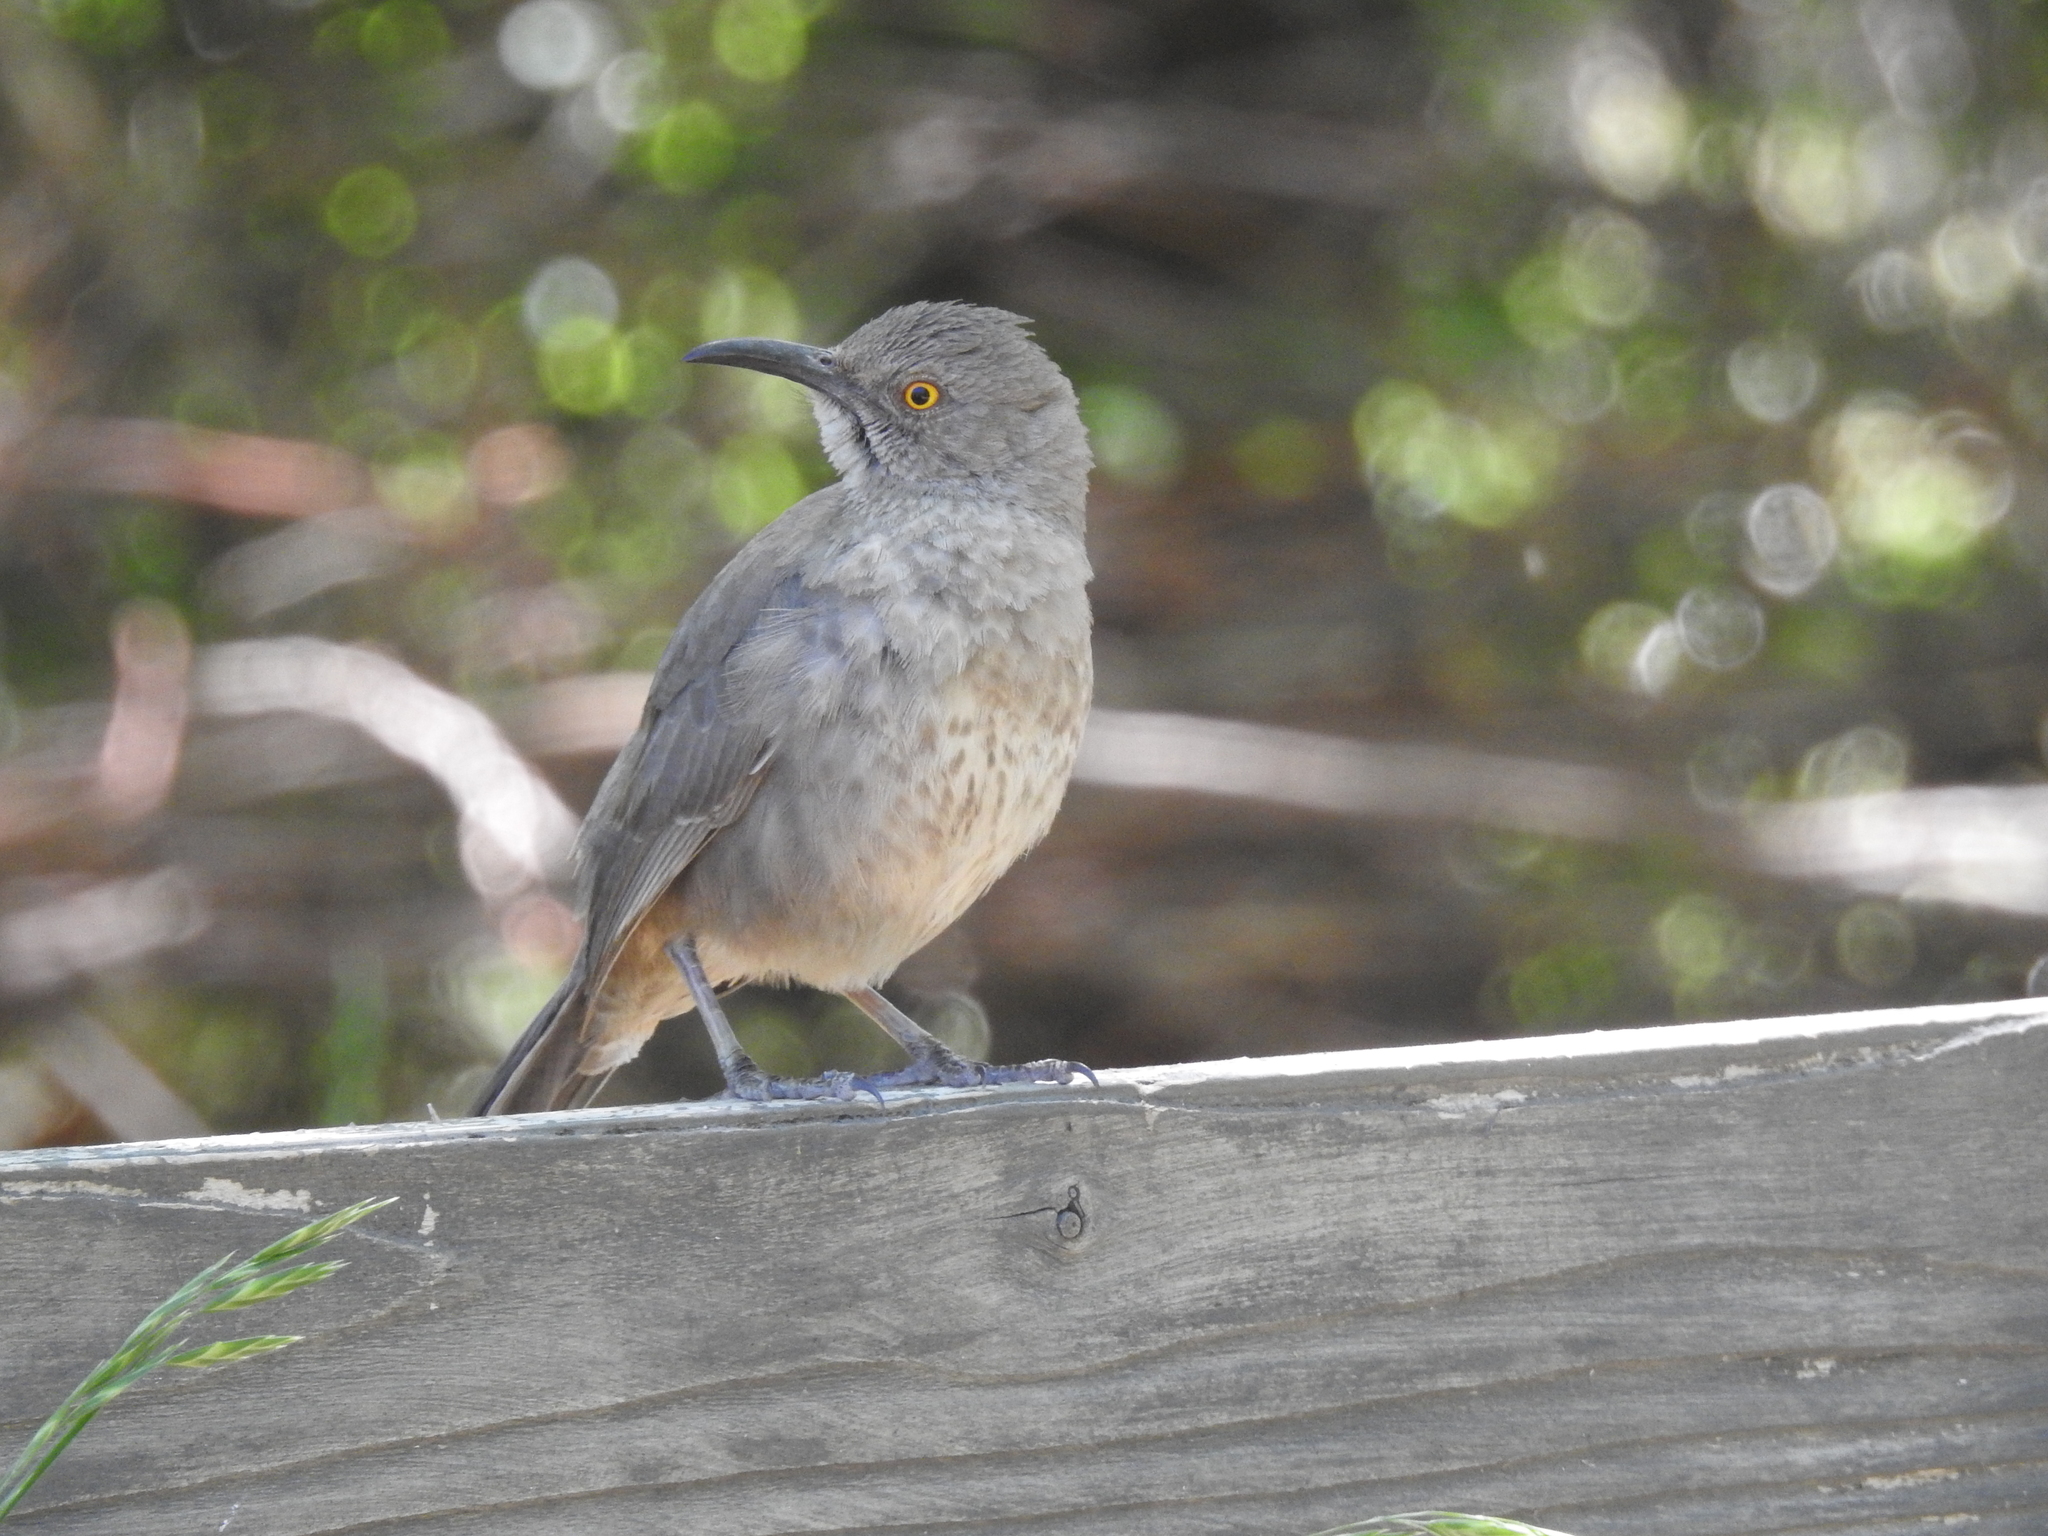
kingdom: Animalia
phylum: Chordata
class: Aves
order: Passeriformes
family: Mimidae
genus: Toxostoma
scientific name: Toxostoma curvirostre
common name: Curve-billed thrasher
